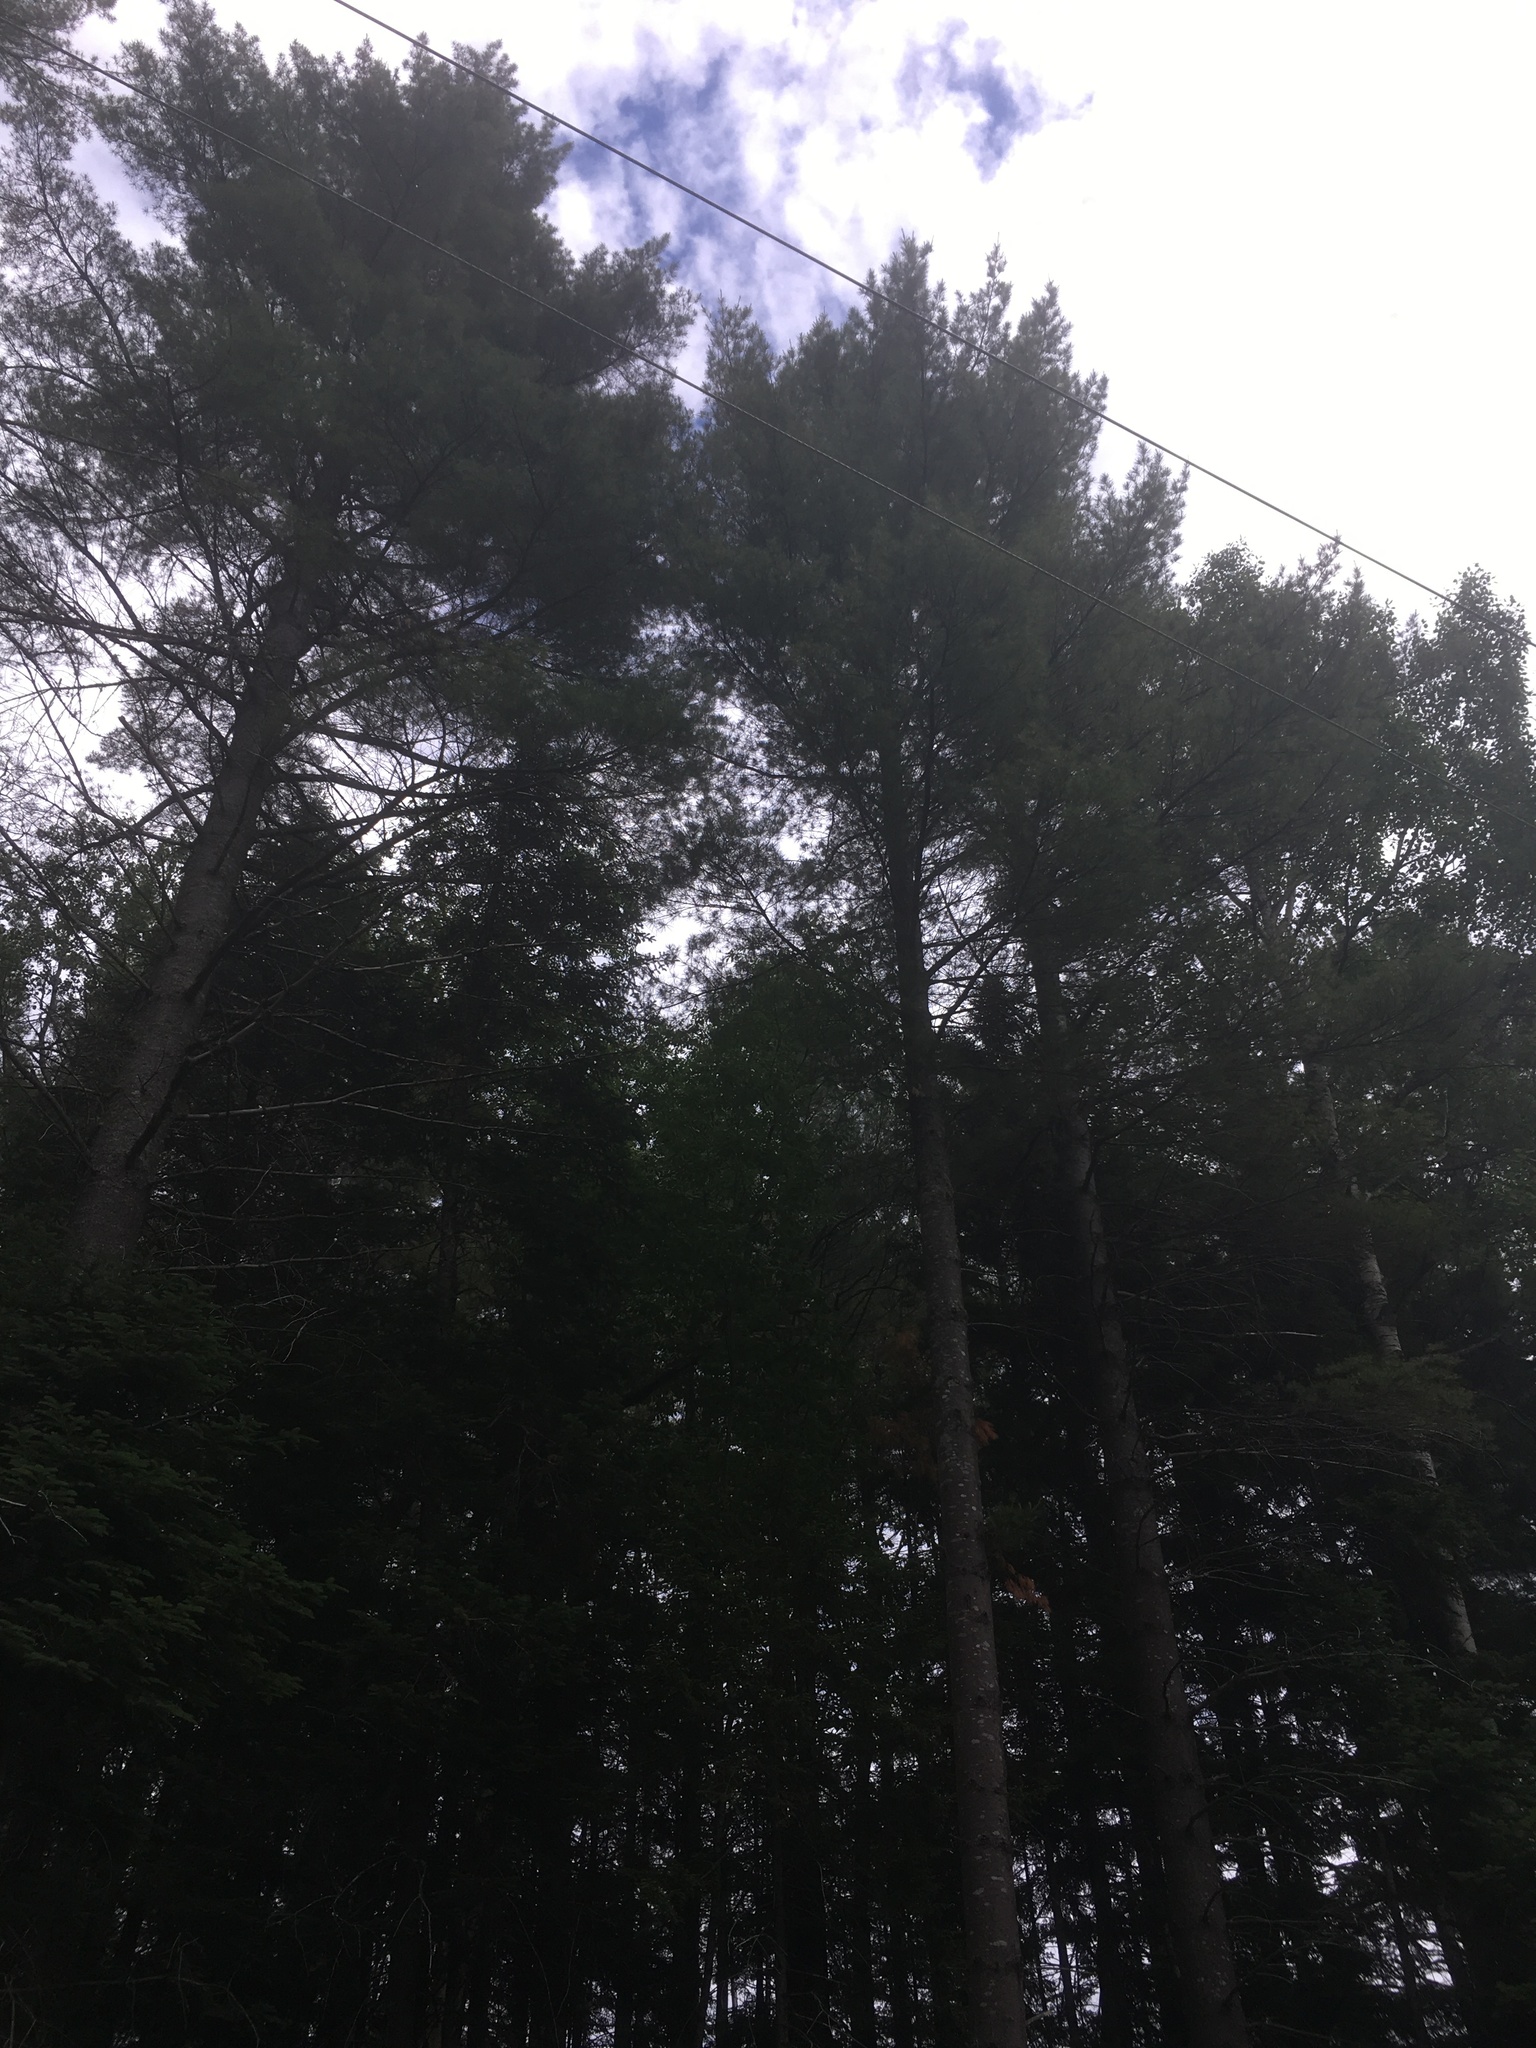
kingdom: Plantae
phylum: Tracheophyta
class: Pinopsida
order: Pinales
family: Pinaceae
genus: Pinus
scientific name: Pinus strobus
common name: Weymouth pine
